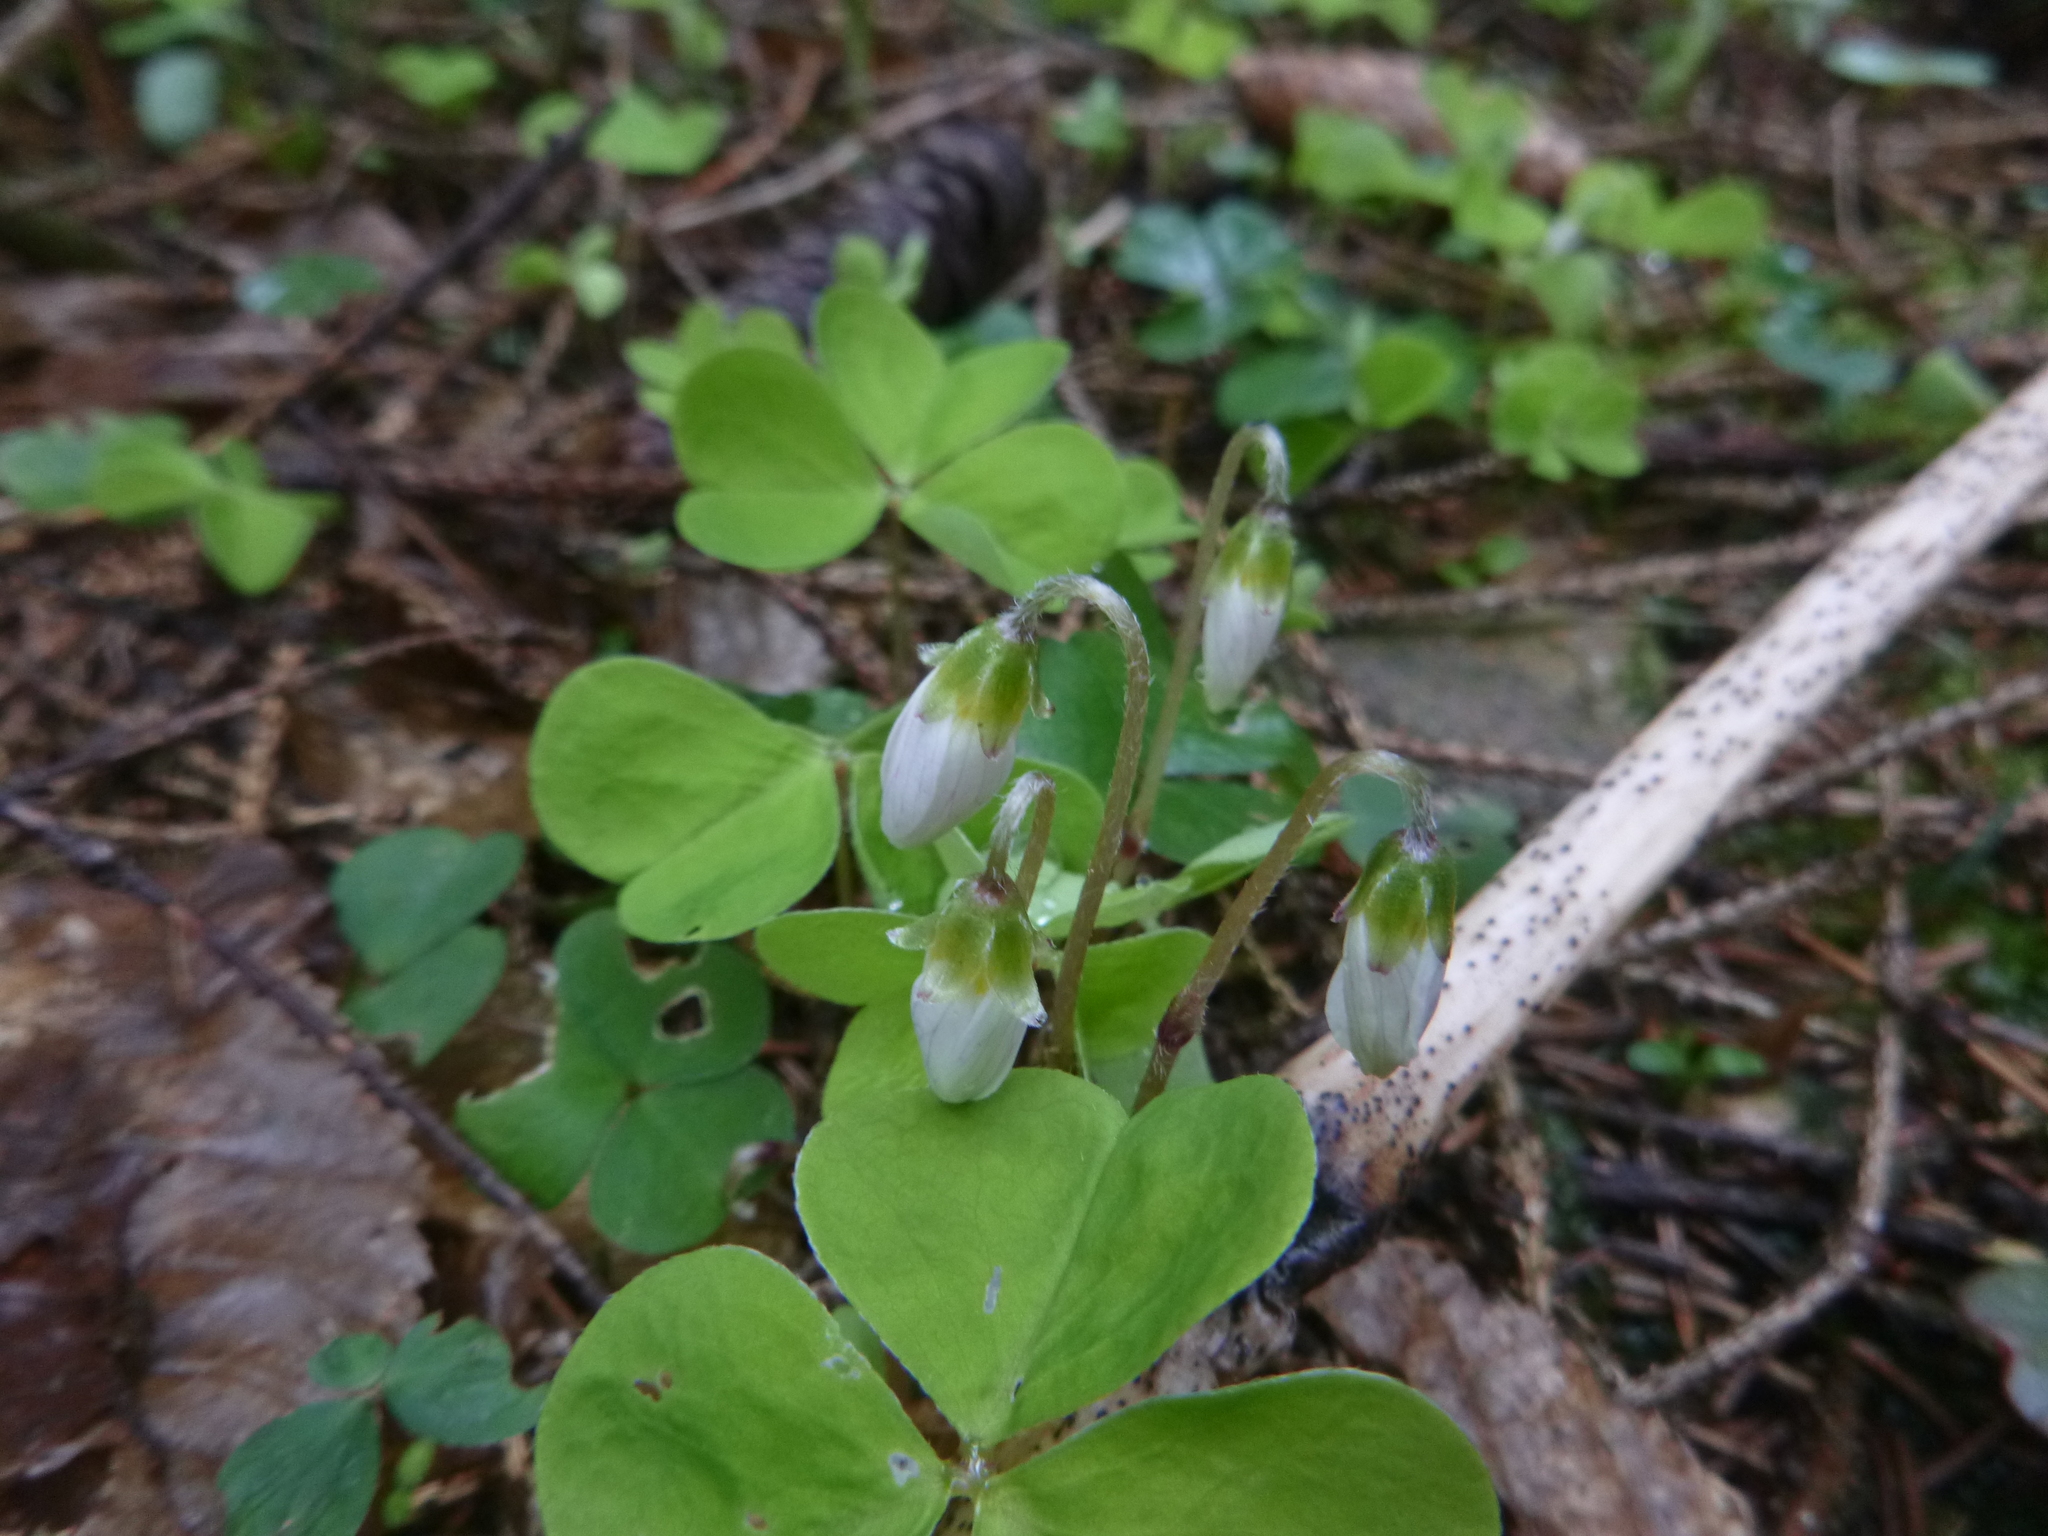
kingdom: Plantae
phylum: Tracheophyta
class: Magnoliopsida
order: Oxalidales
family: Oxalidaceae
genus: Oxalis
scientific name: Oxalis acetosella
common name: Wood-sorrel
